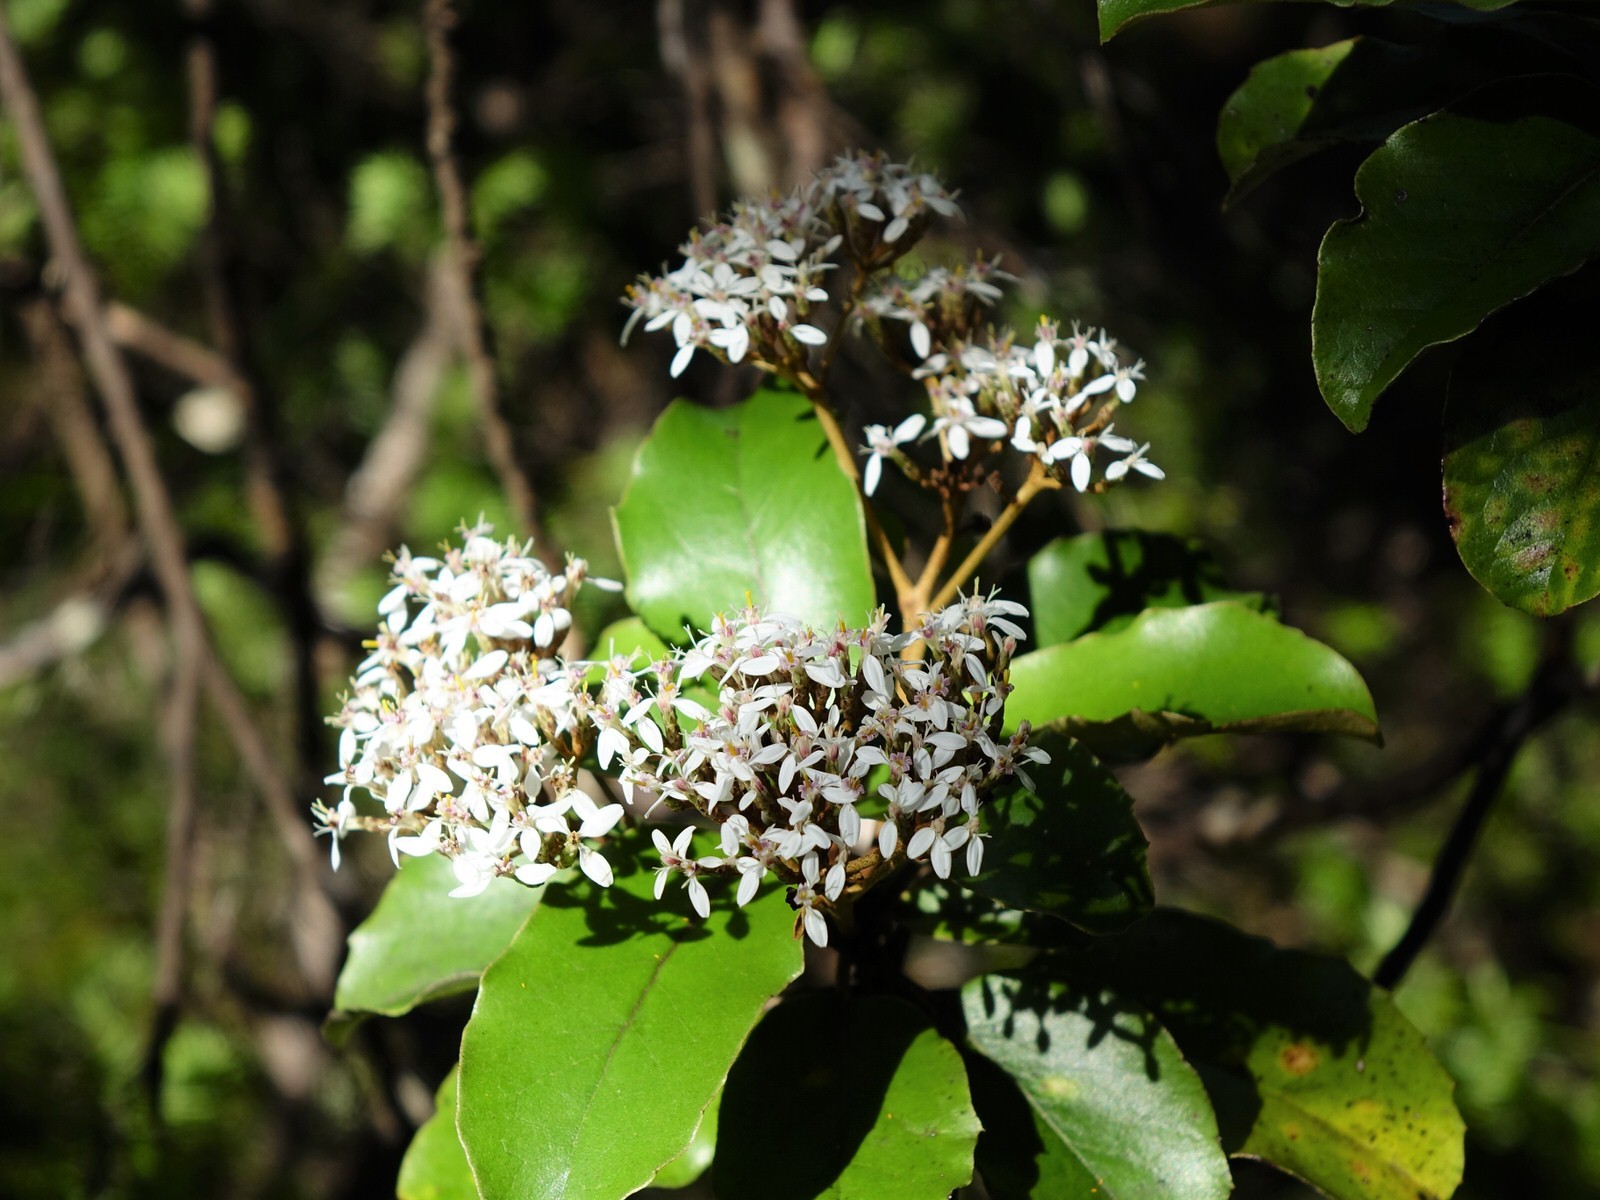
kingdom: Plantae
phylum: Tracheophyta
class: Magnoliopsida
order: Asterales
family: Asteraceae
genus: Olearia
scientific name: Olearia furfuracea
